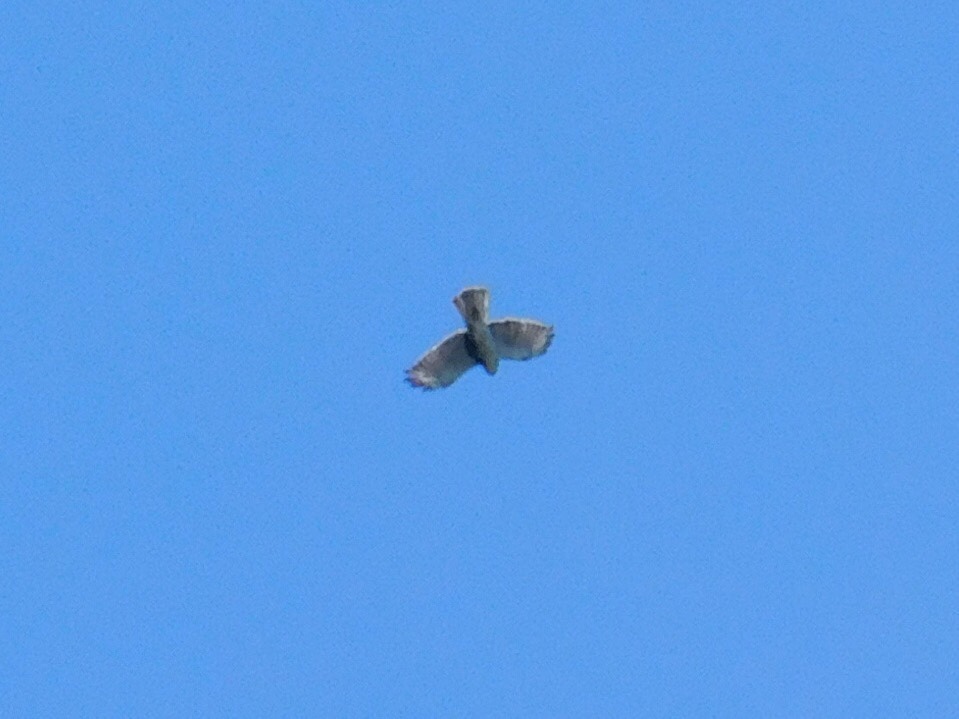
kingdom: Animalia
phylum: Chordata
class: Aves
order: Accipitriformes
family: Accipitridae
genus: Buteo
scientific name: Buteo albigula
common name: White-throated hawk
